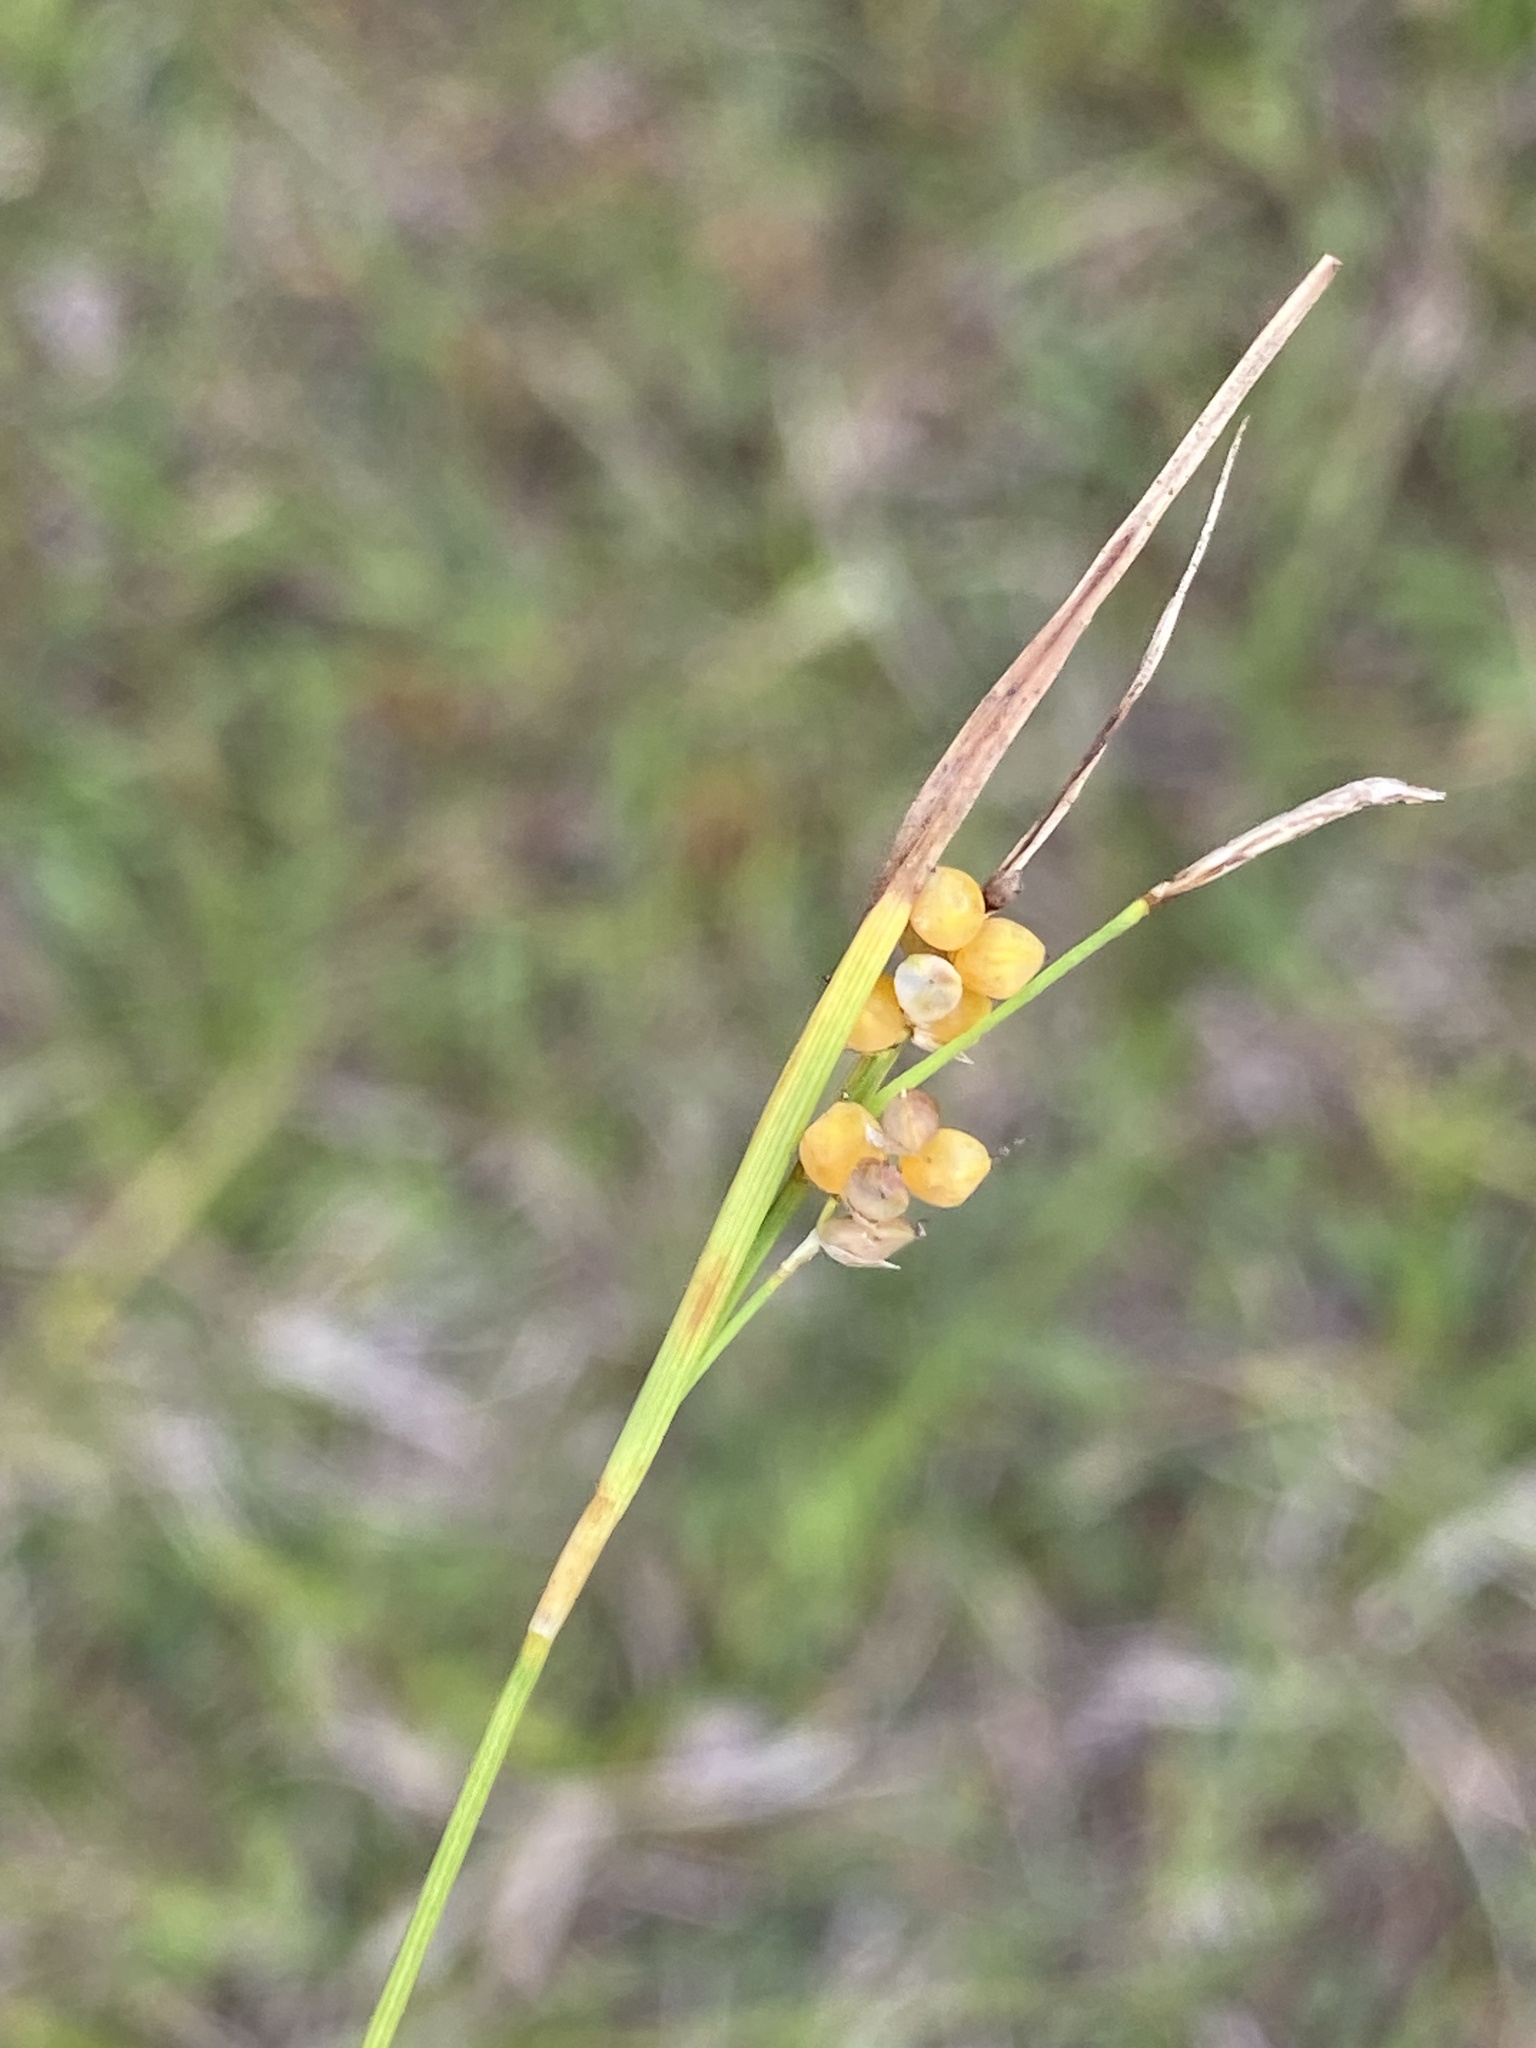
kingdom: Plantae
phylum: Tracheophyta
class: Liliopsida
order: Poales
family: Cyperaceae
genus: Carex
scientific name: Carex aurea
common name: Golden sedge
